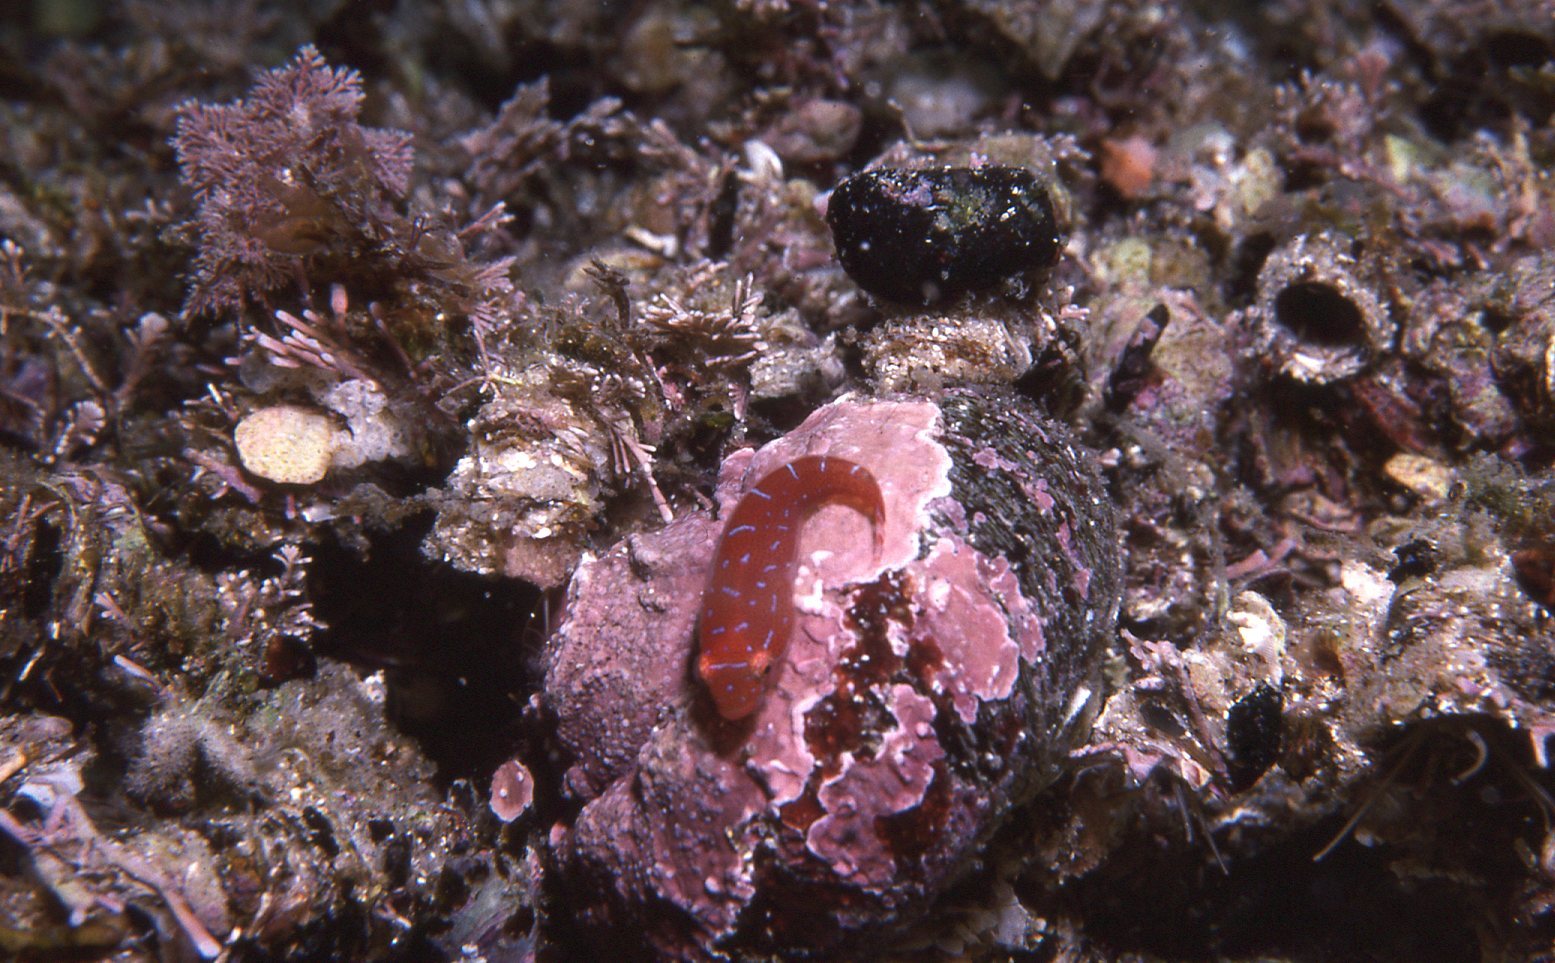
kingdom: Animalia
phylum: Chordata
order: Gobiesociformes
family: Gobiesocidae
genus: Cochleoceps
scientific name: Cochleoceps orientalis
